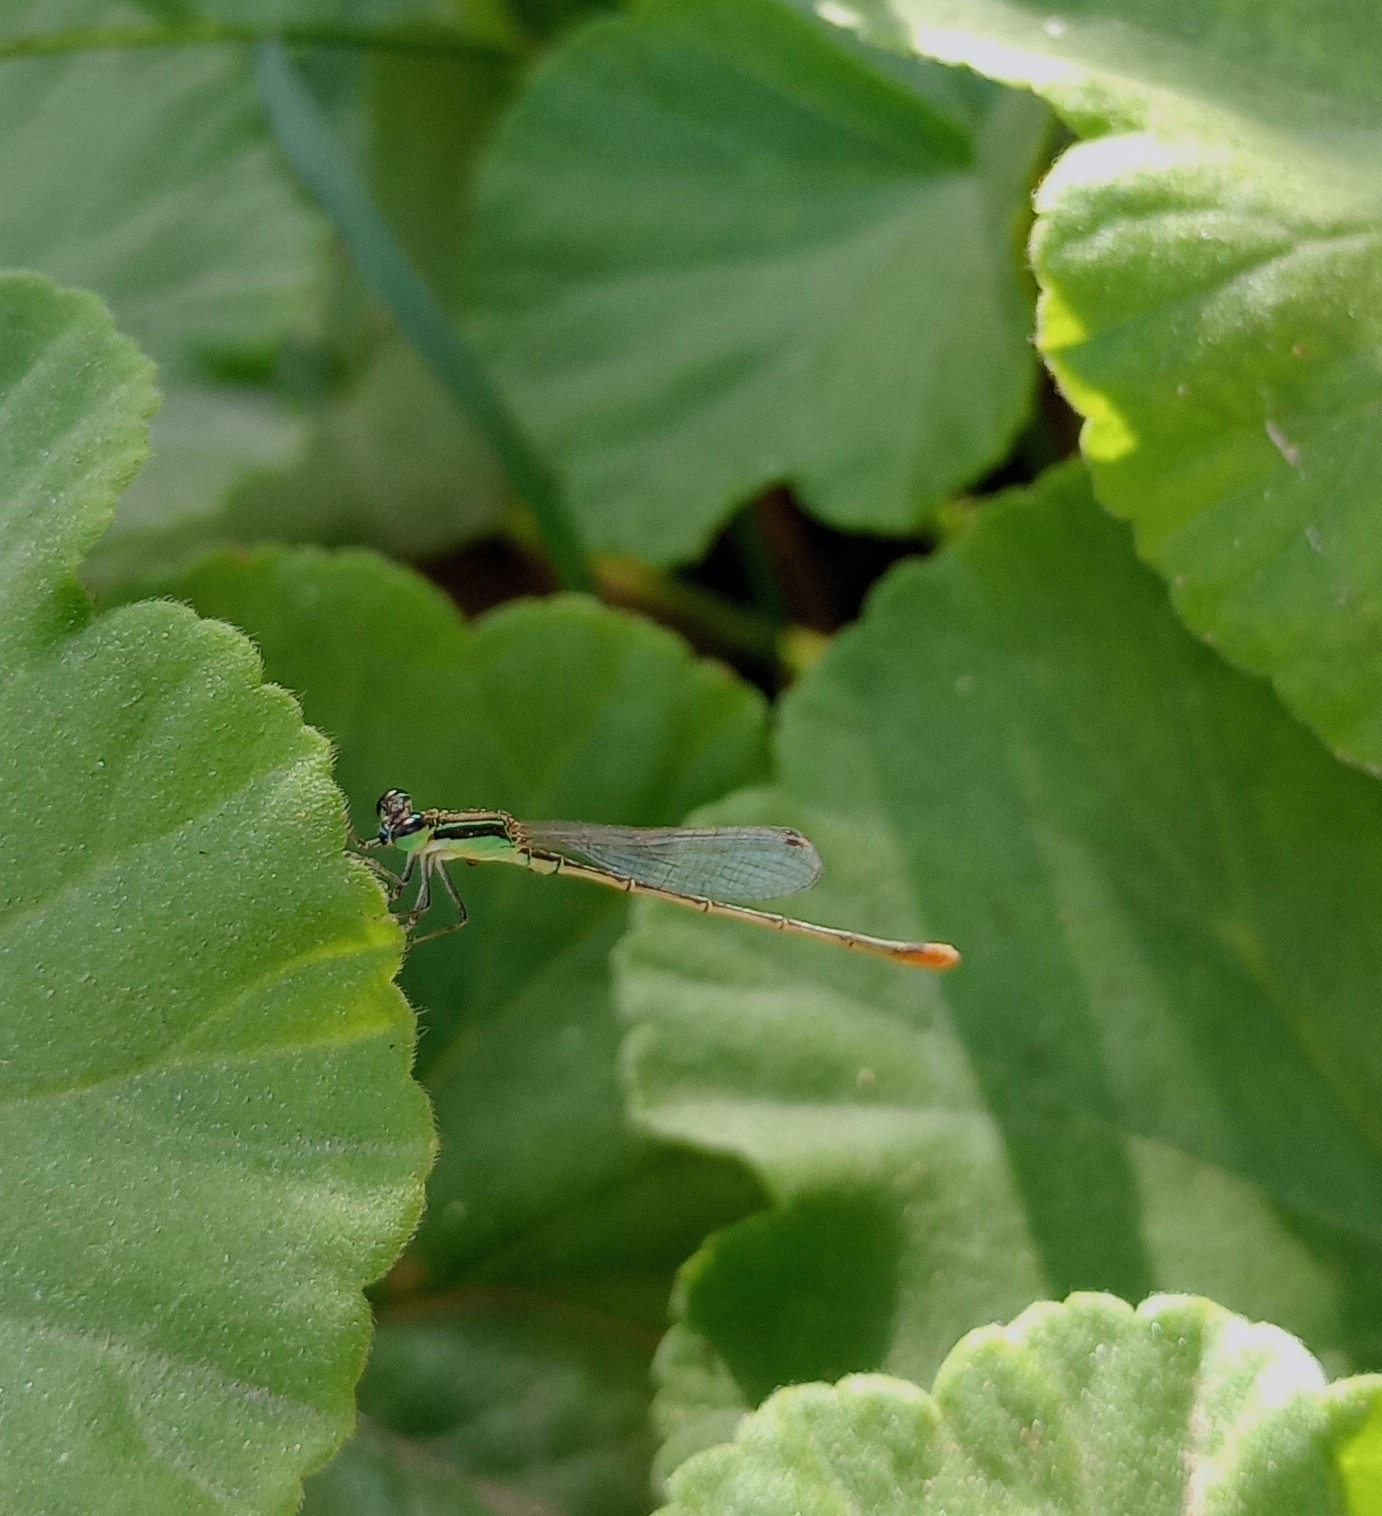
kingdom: Animalia
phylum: Arthropoda
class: Insecta
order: Odonata
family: Coenagrionidae
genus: Agriocnemis
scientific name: Agriocnemis pygmaea
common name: Pygmy wisp
